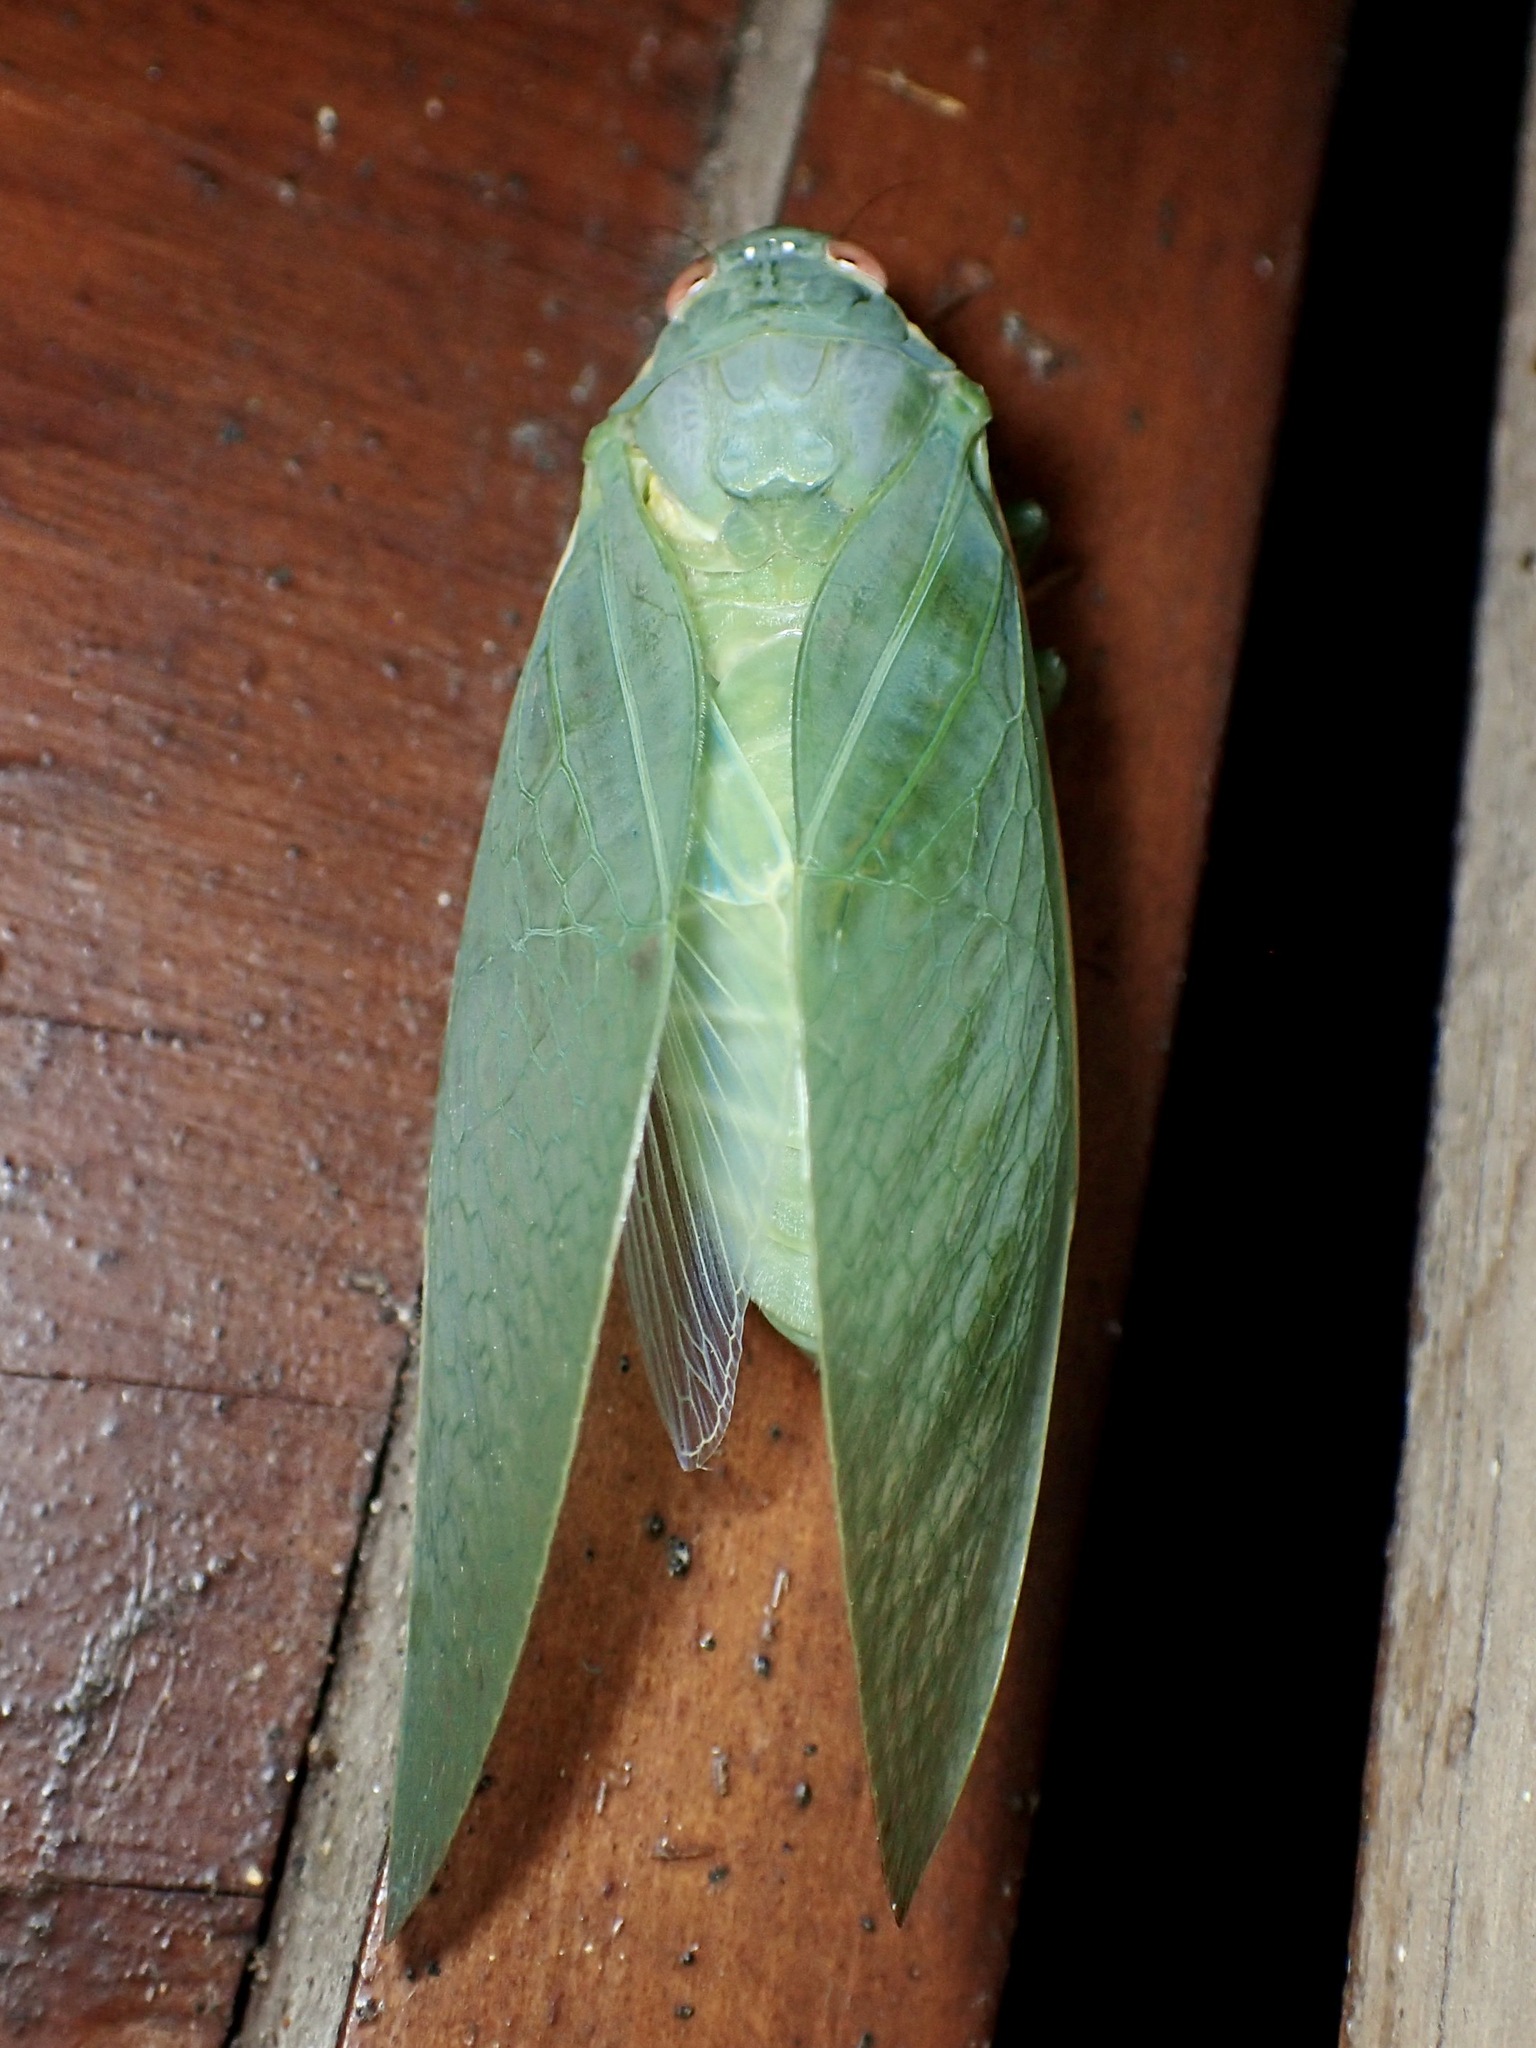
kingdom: Animalia
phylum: Arthropoda
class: Insecta
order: Hemiptera
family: Cicadidae
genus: Cystopsaltria
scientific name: Cystopsaltria immaculata
